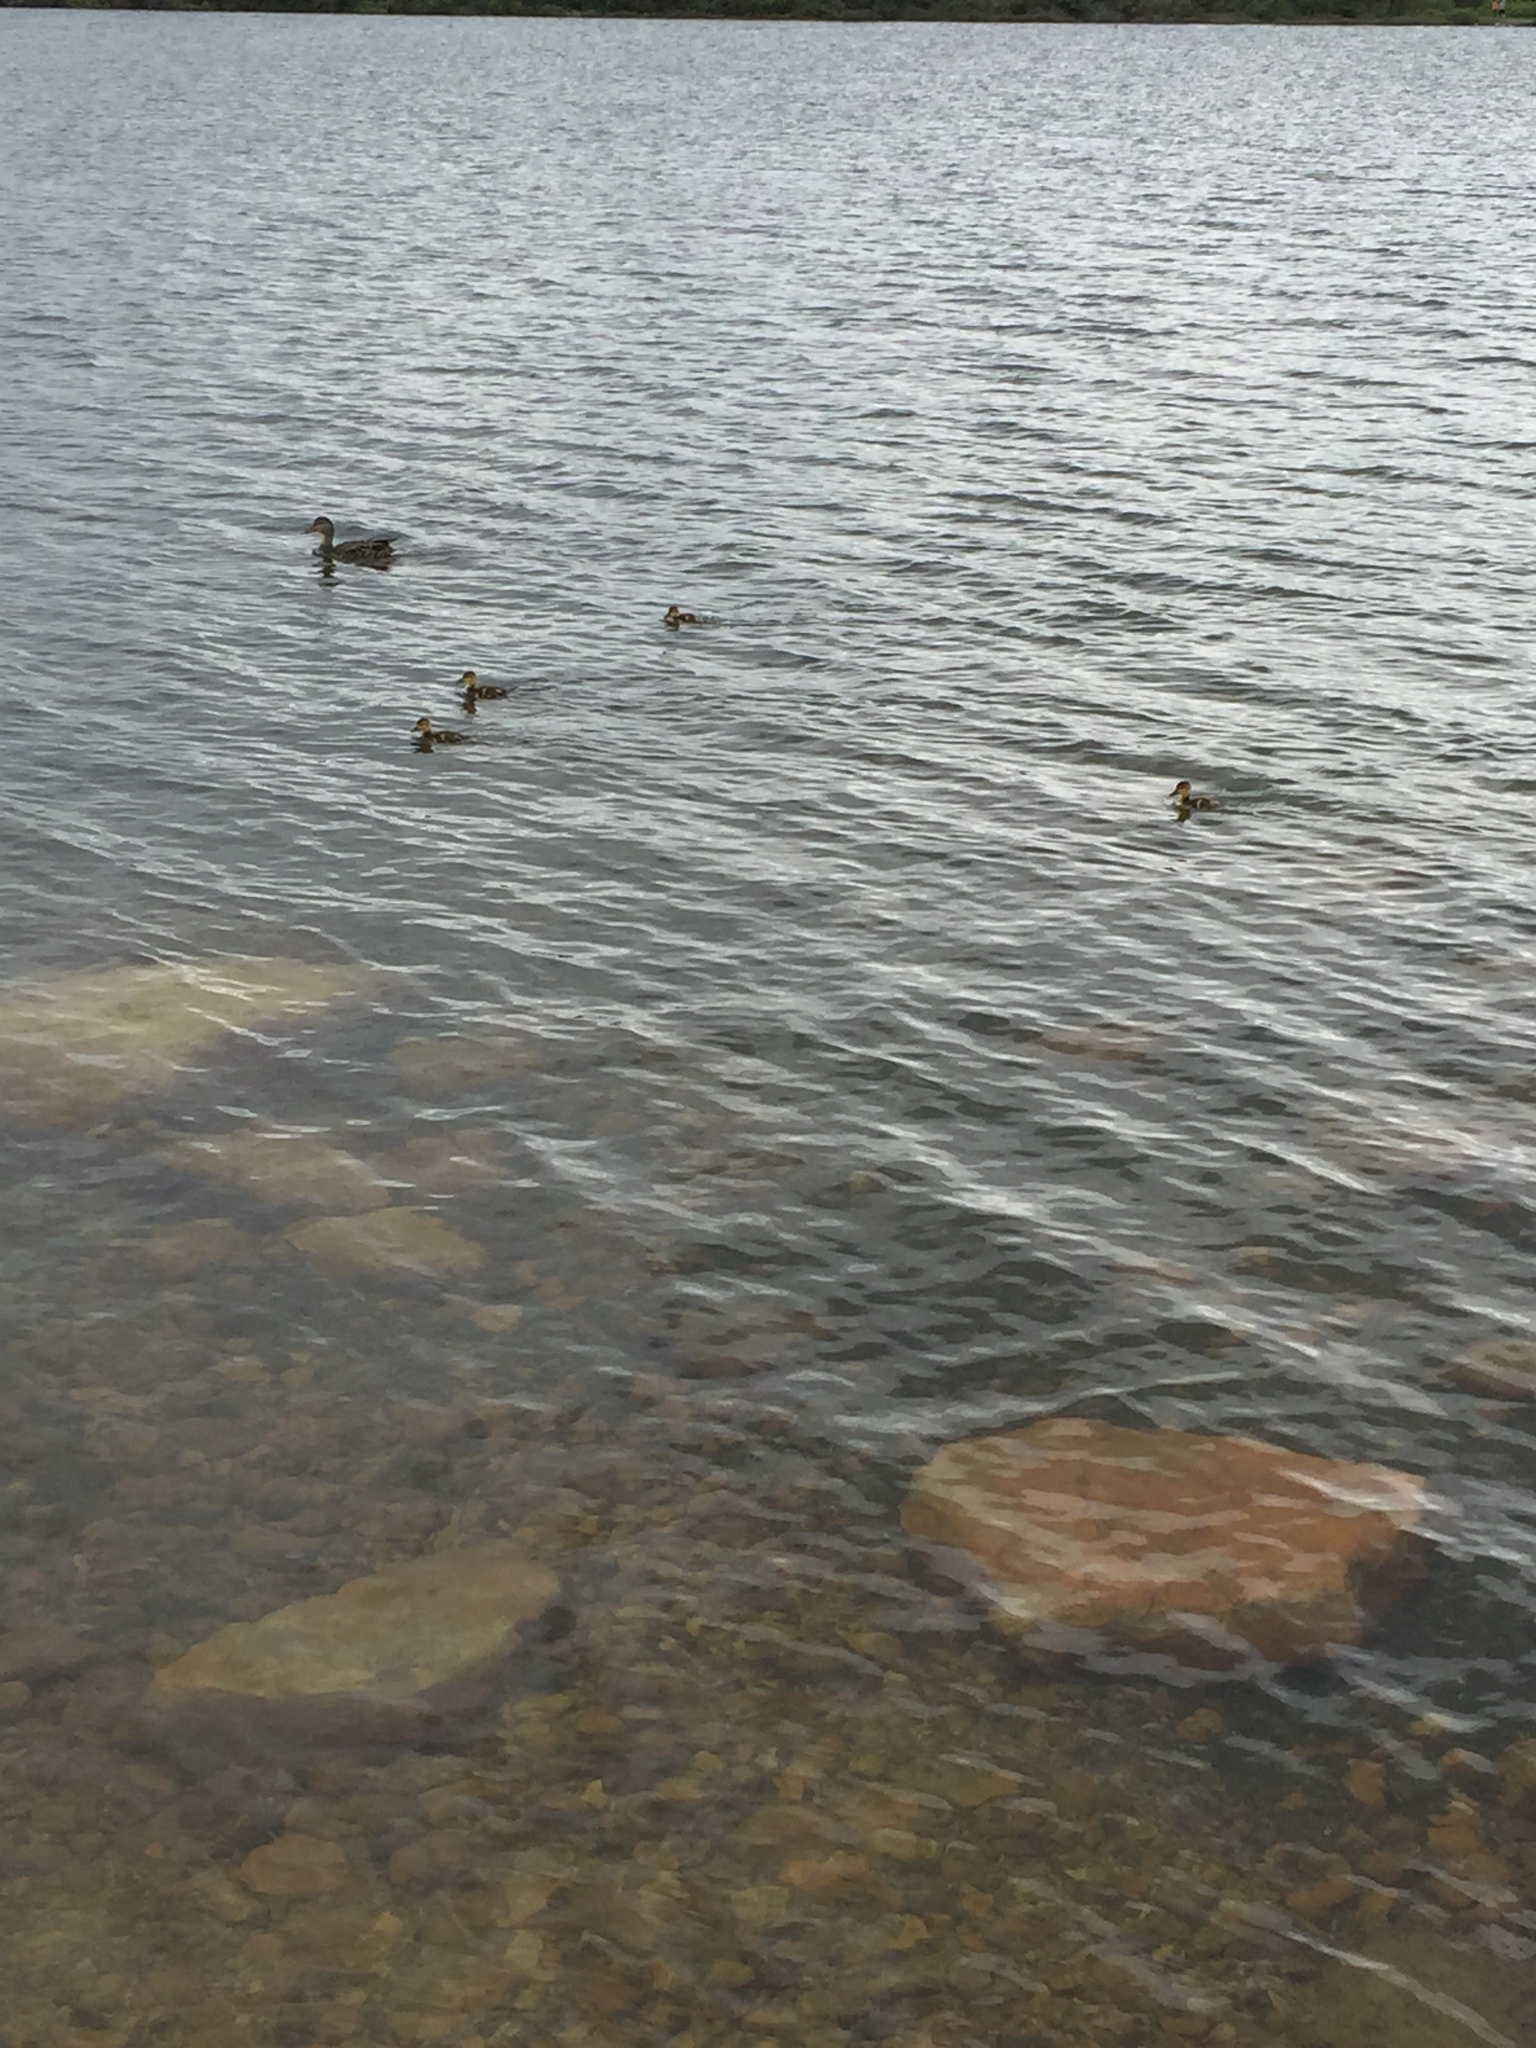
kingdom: Animalia
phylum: Chordata
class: Aves
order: Anseriformes
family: Anatidae
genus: Anas
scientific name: Anas platyrhynchos
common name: Mallard
